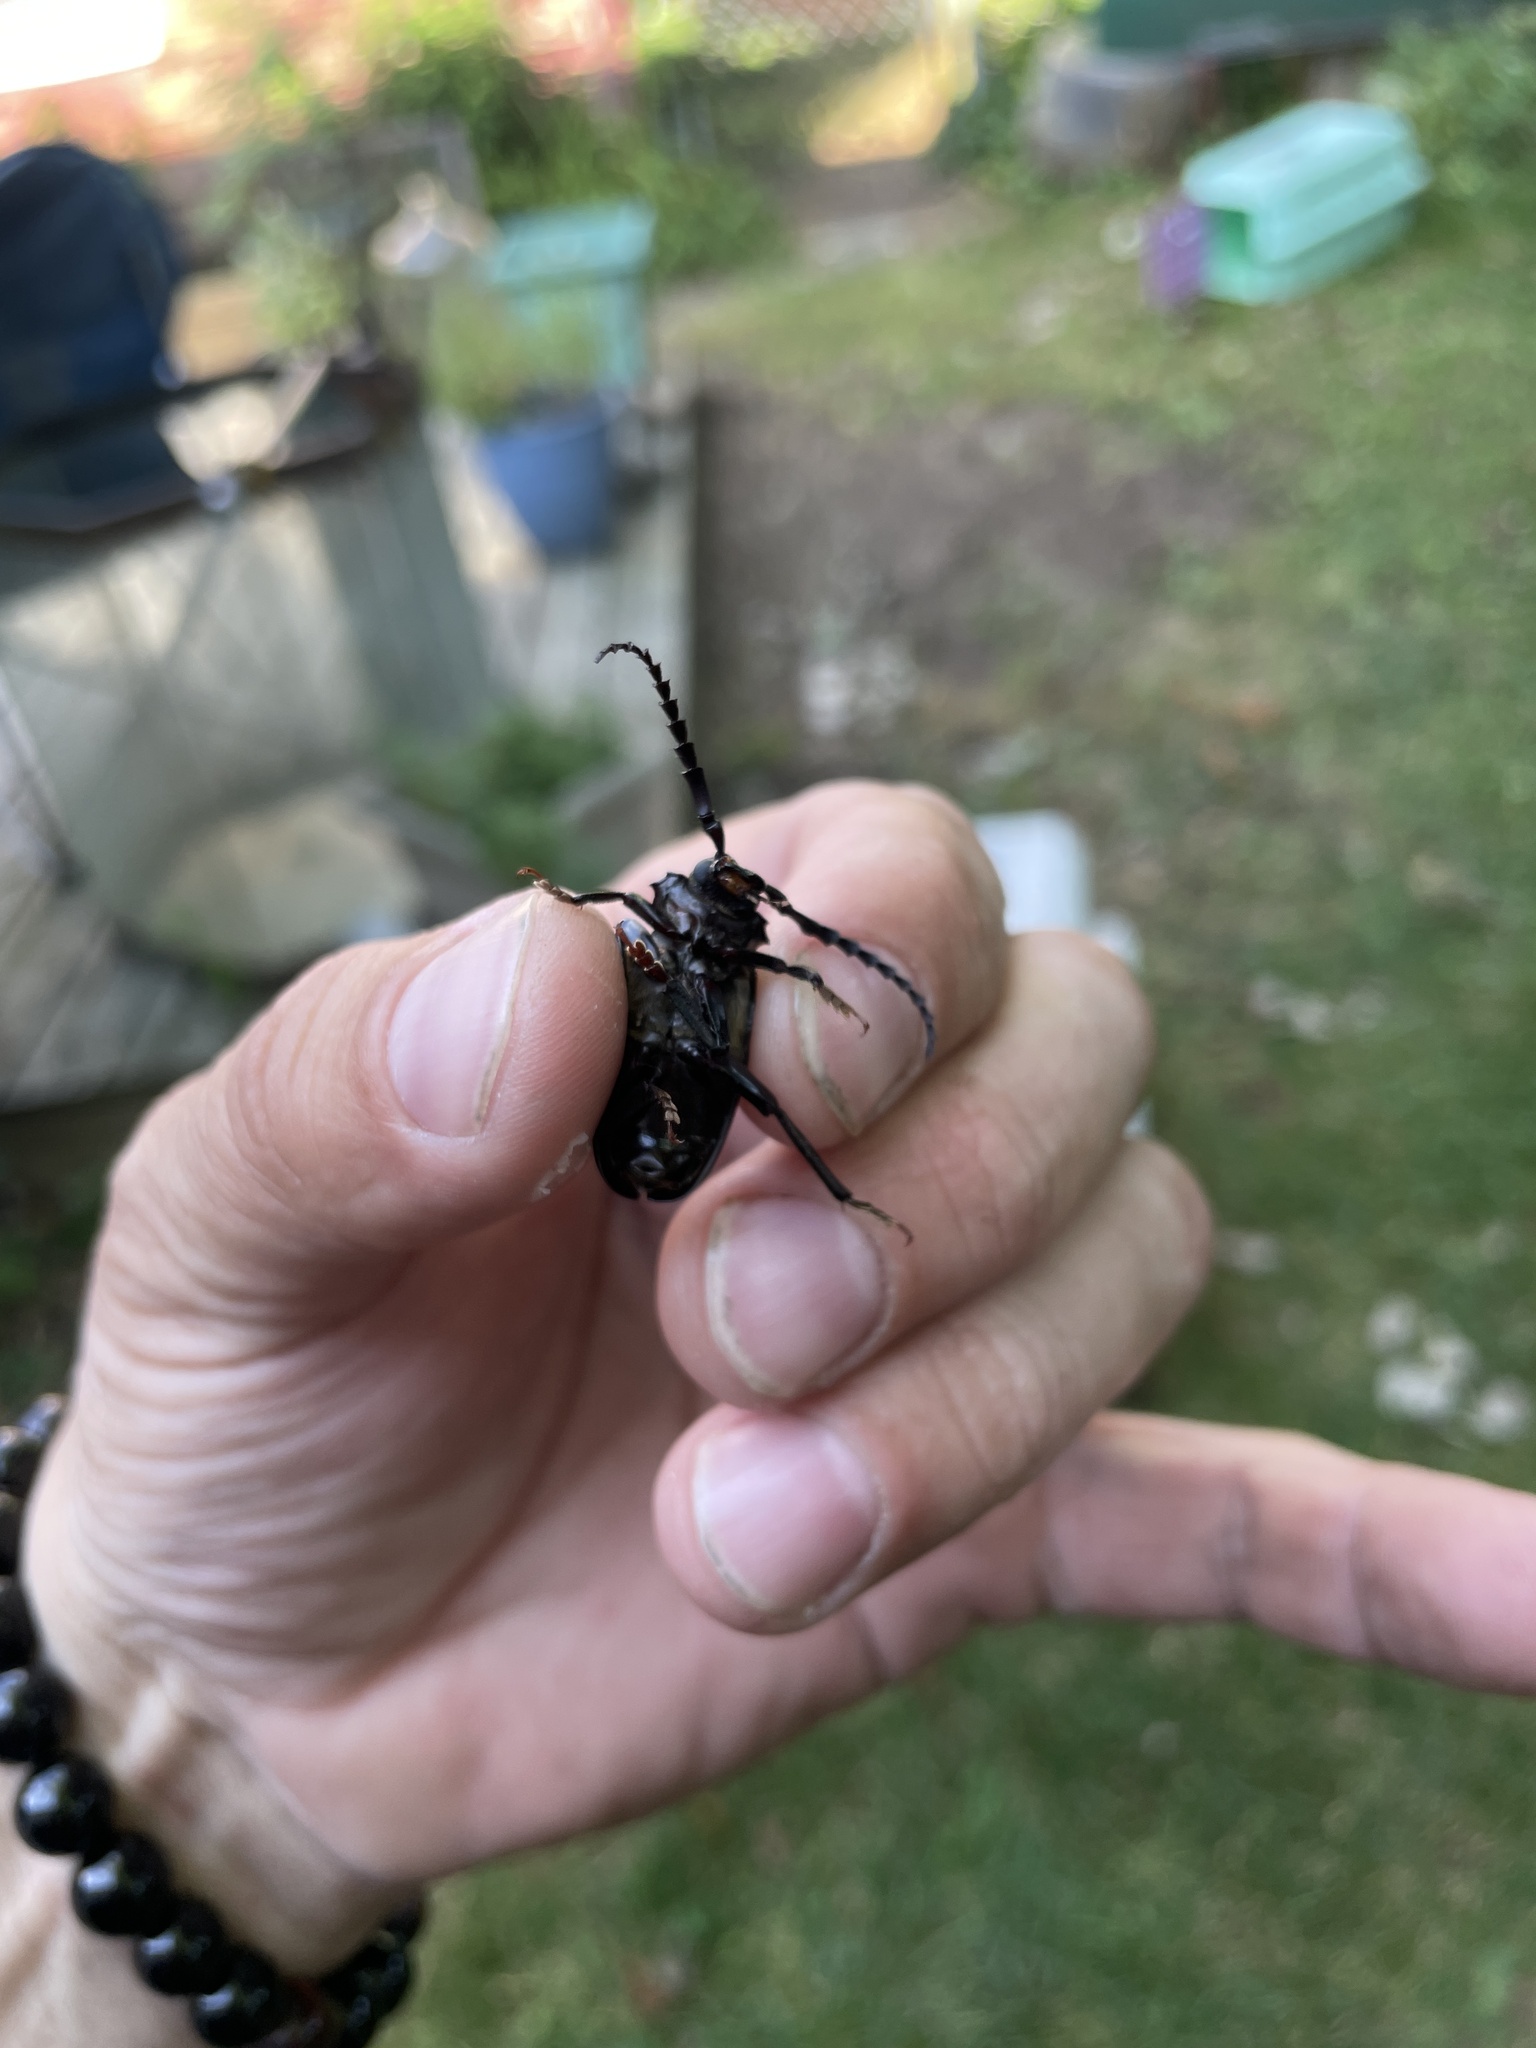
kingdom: Animalia
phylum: Arthropoda
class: Insecta
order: Coleoptera
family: Cerambycidae
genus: Prionus
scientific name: Prionus laticollis
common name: Broad necked prionus
